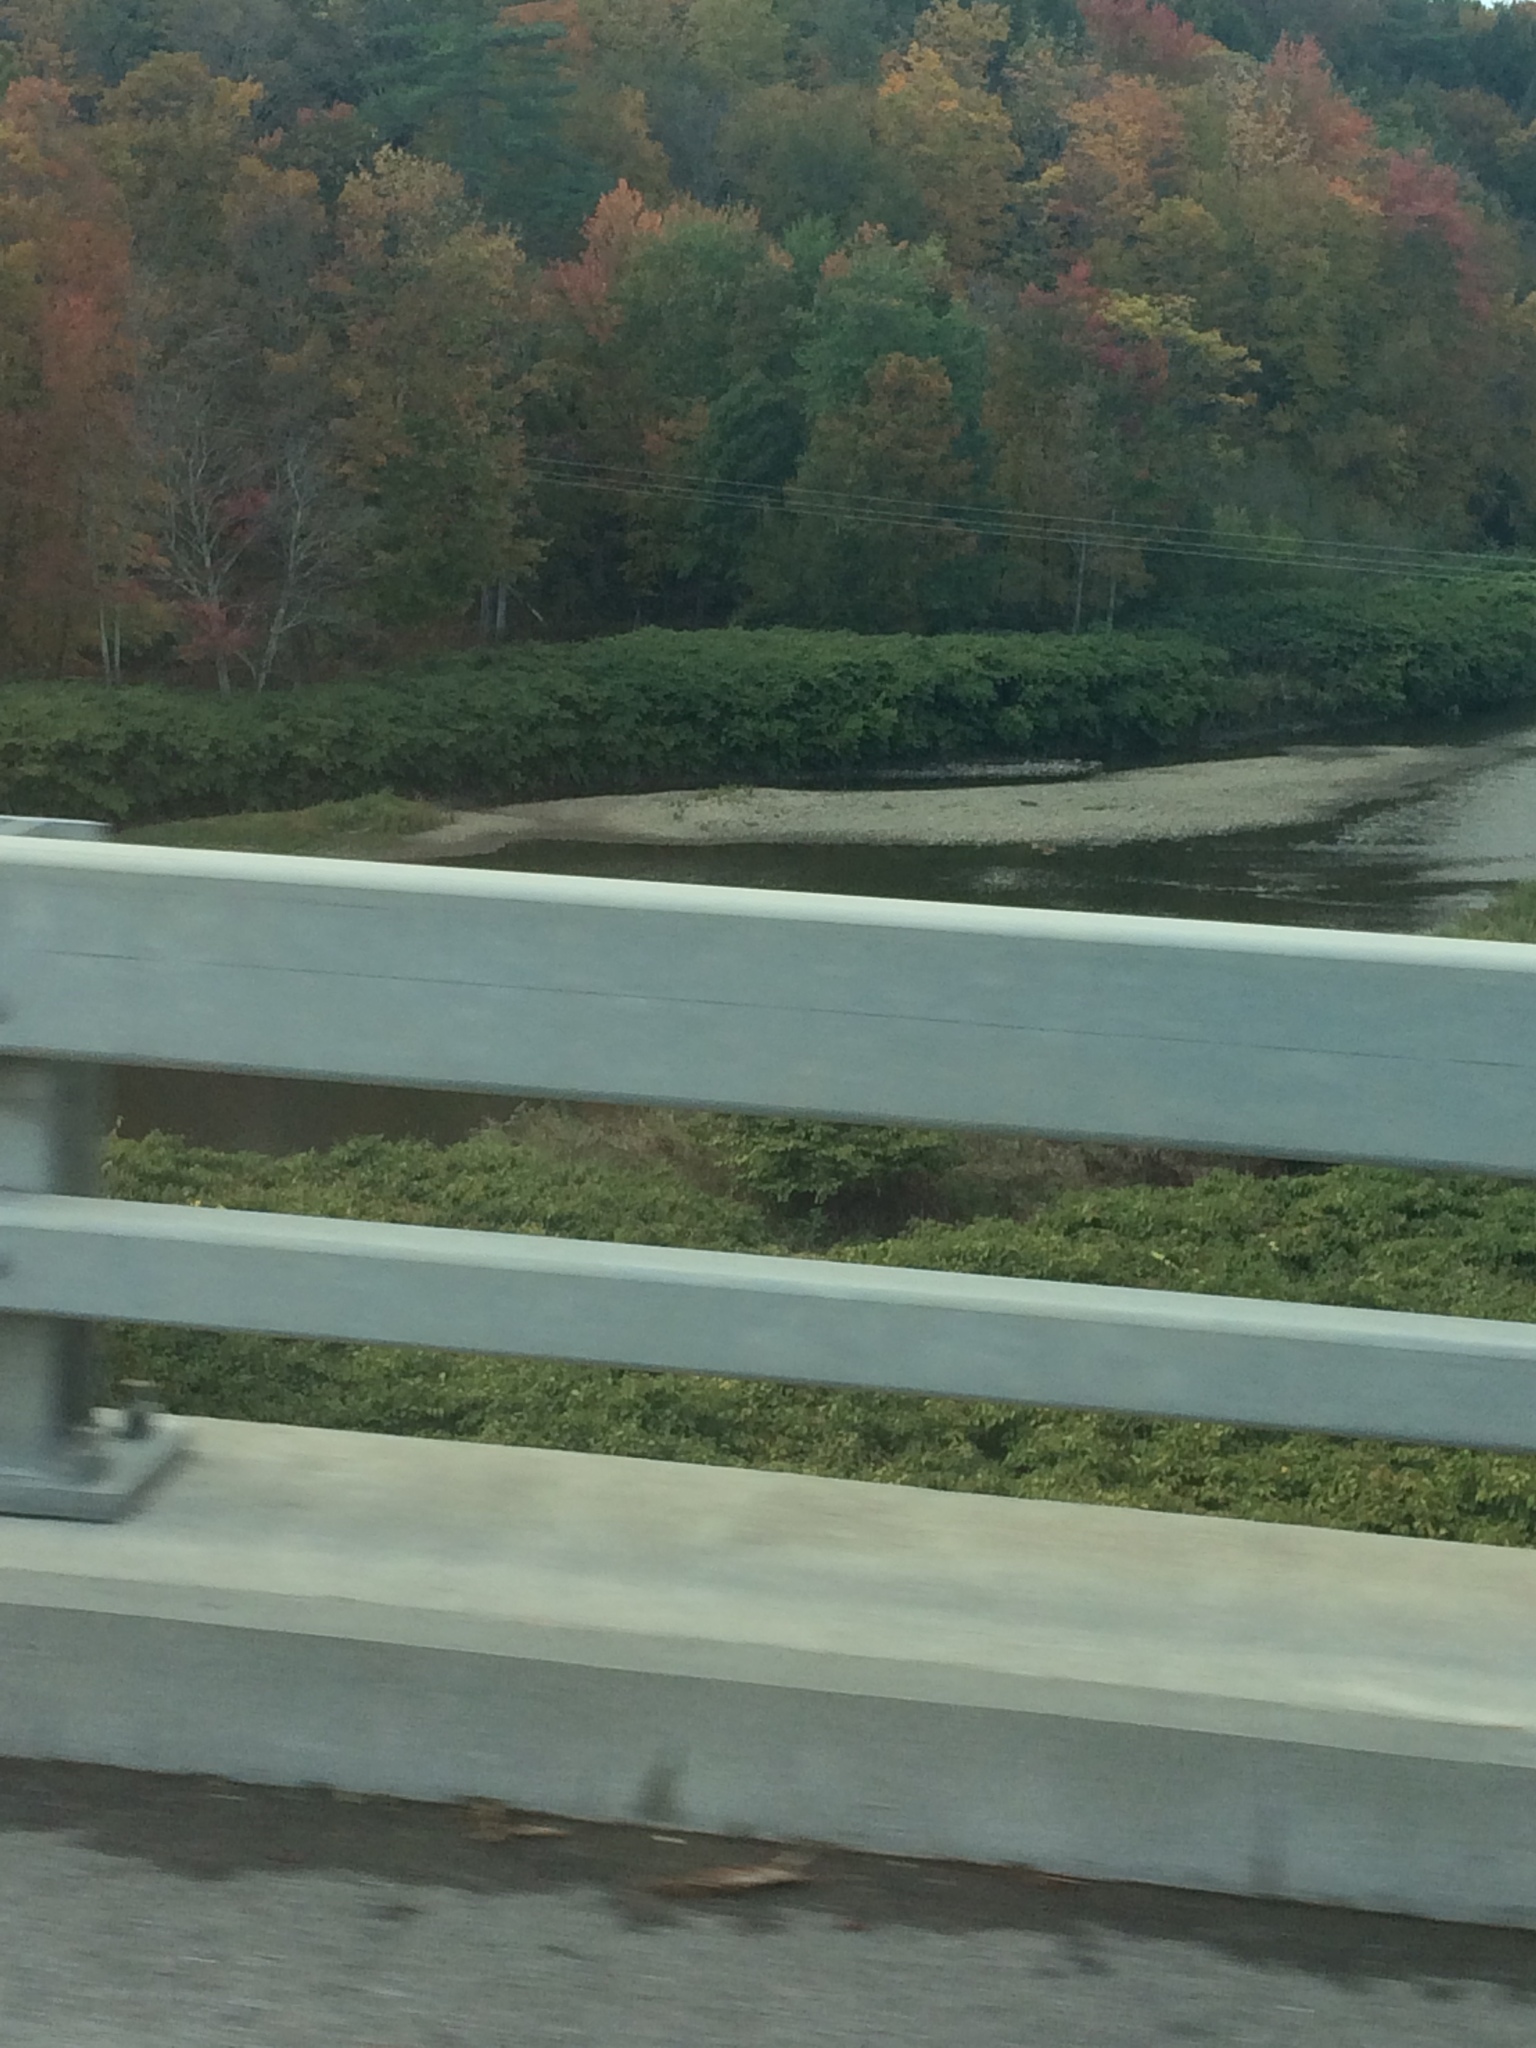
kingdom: Plantae
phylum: Tracheophyta
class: Magnoliopsida
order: Caryophyllales
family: Polygonaceae
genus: Reynoutria
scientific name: Reynoutria japonica
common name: Japanese knotweed
